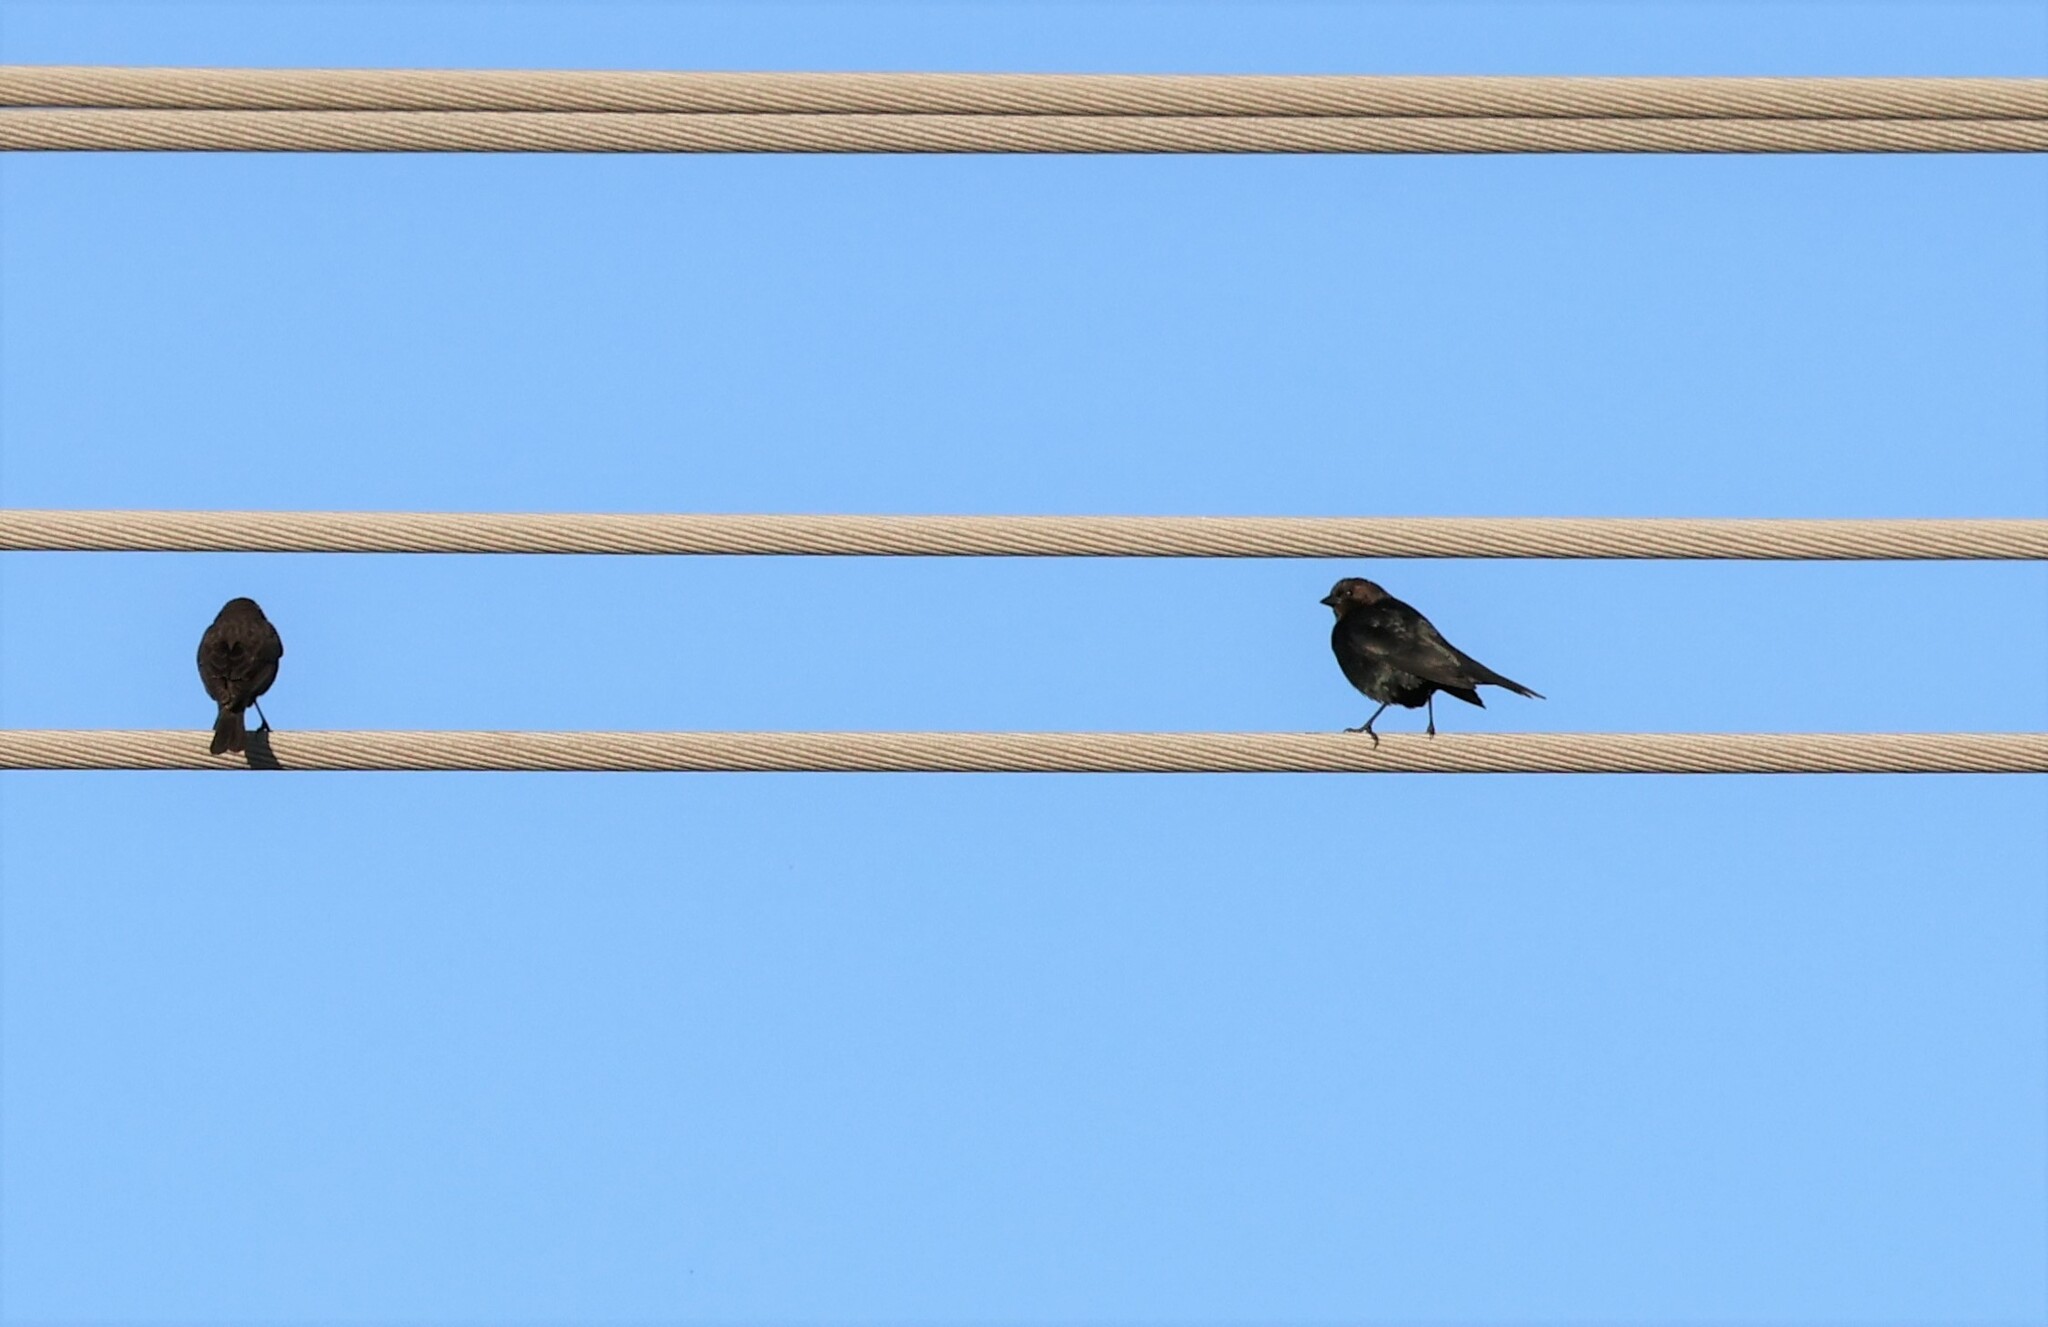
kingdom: Animalia
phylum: Chordata
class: Aves
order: Passeriformes
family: Icteridae
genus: Molothrus
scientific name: Molothrus ater
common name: Brown-headed cowbird
